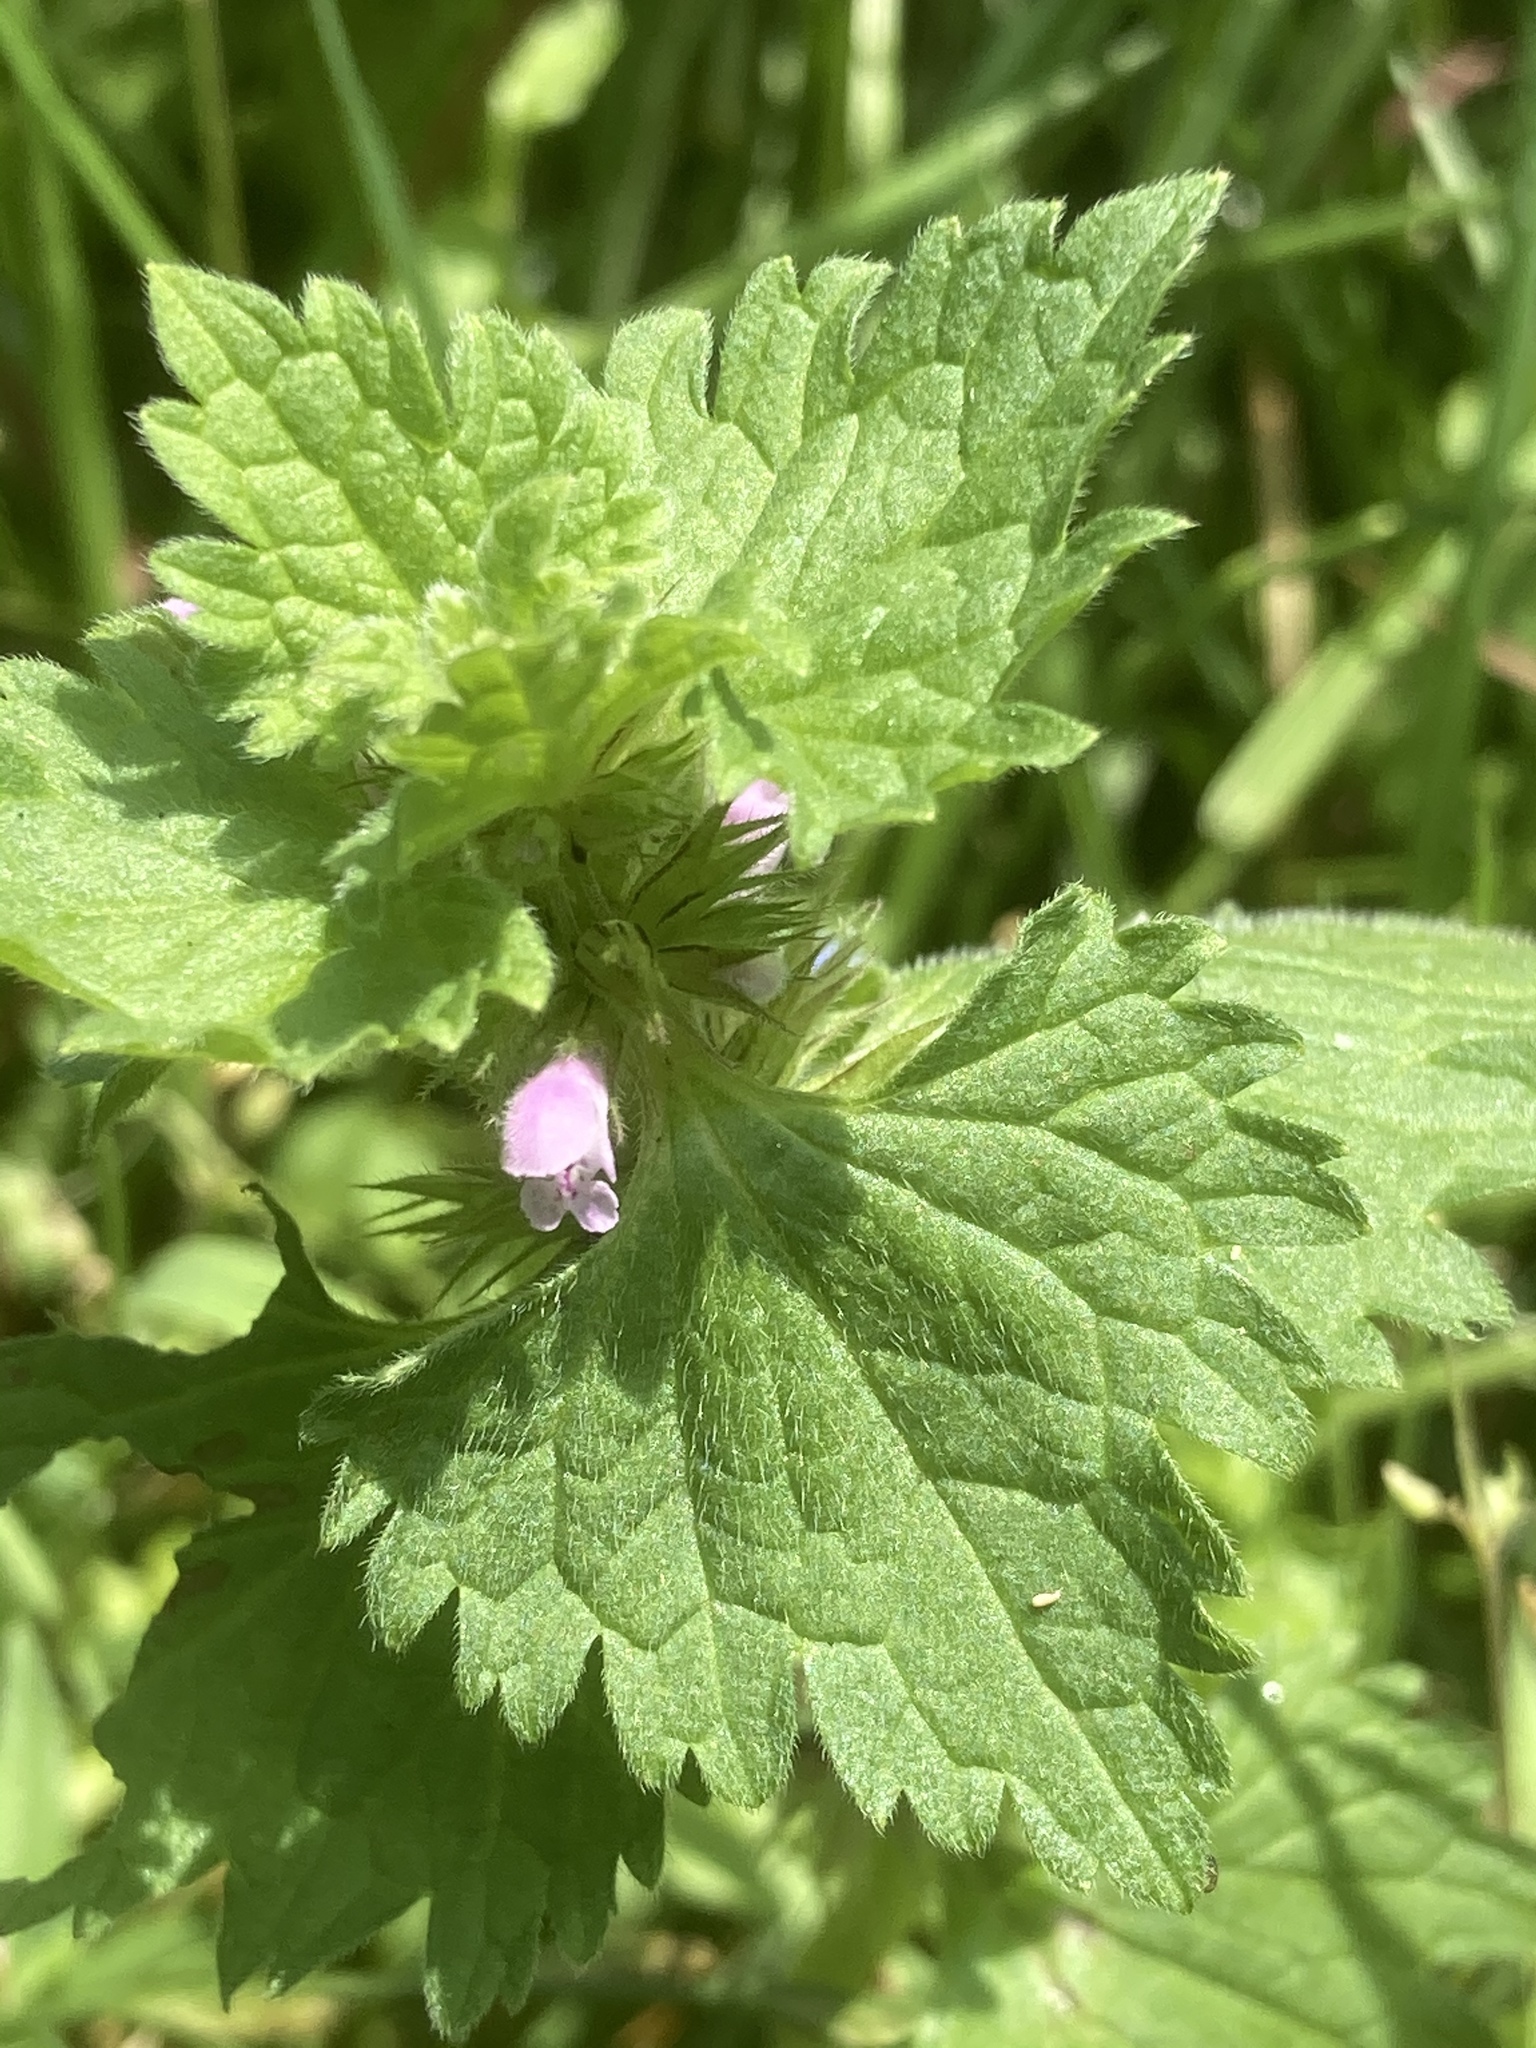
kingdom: Plantae
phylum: Tracheophyta
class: Magnoliopsida
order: Lamiales
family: Lamiaceae
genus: Lamium
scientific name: Lamium hybridum
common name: Cut-leaved dead-nettle
